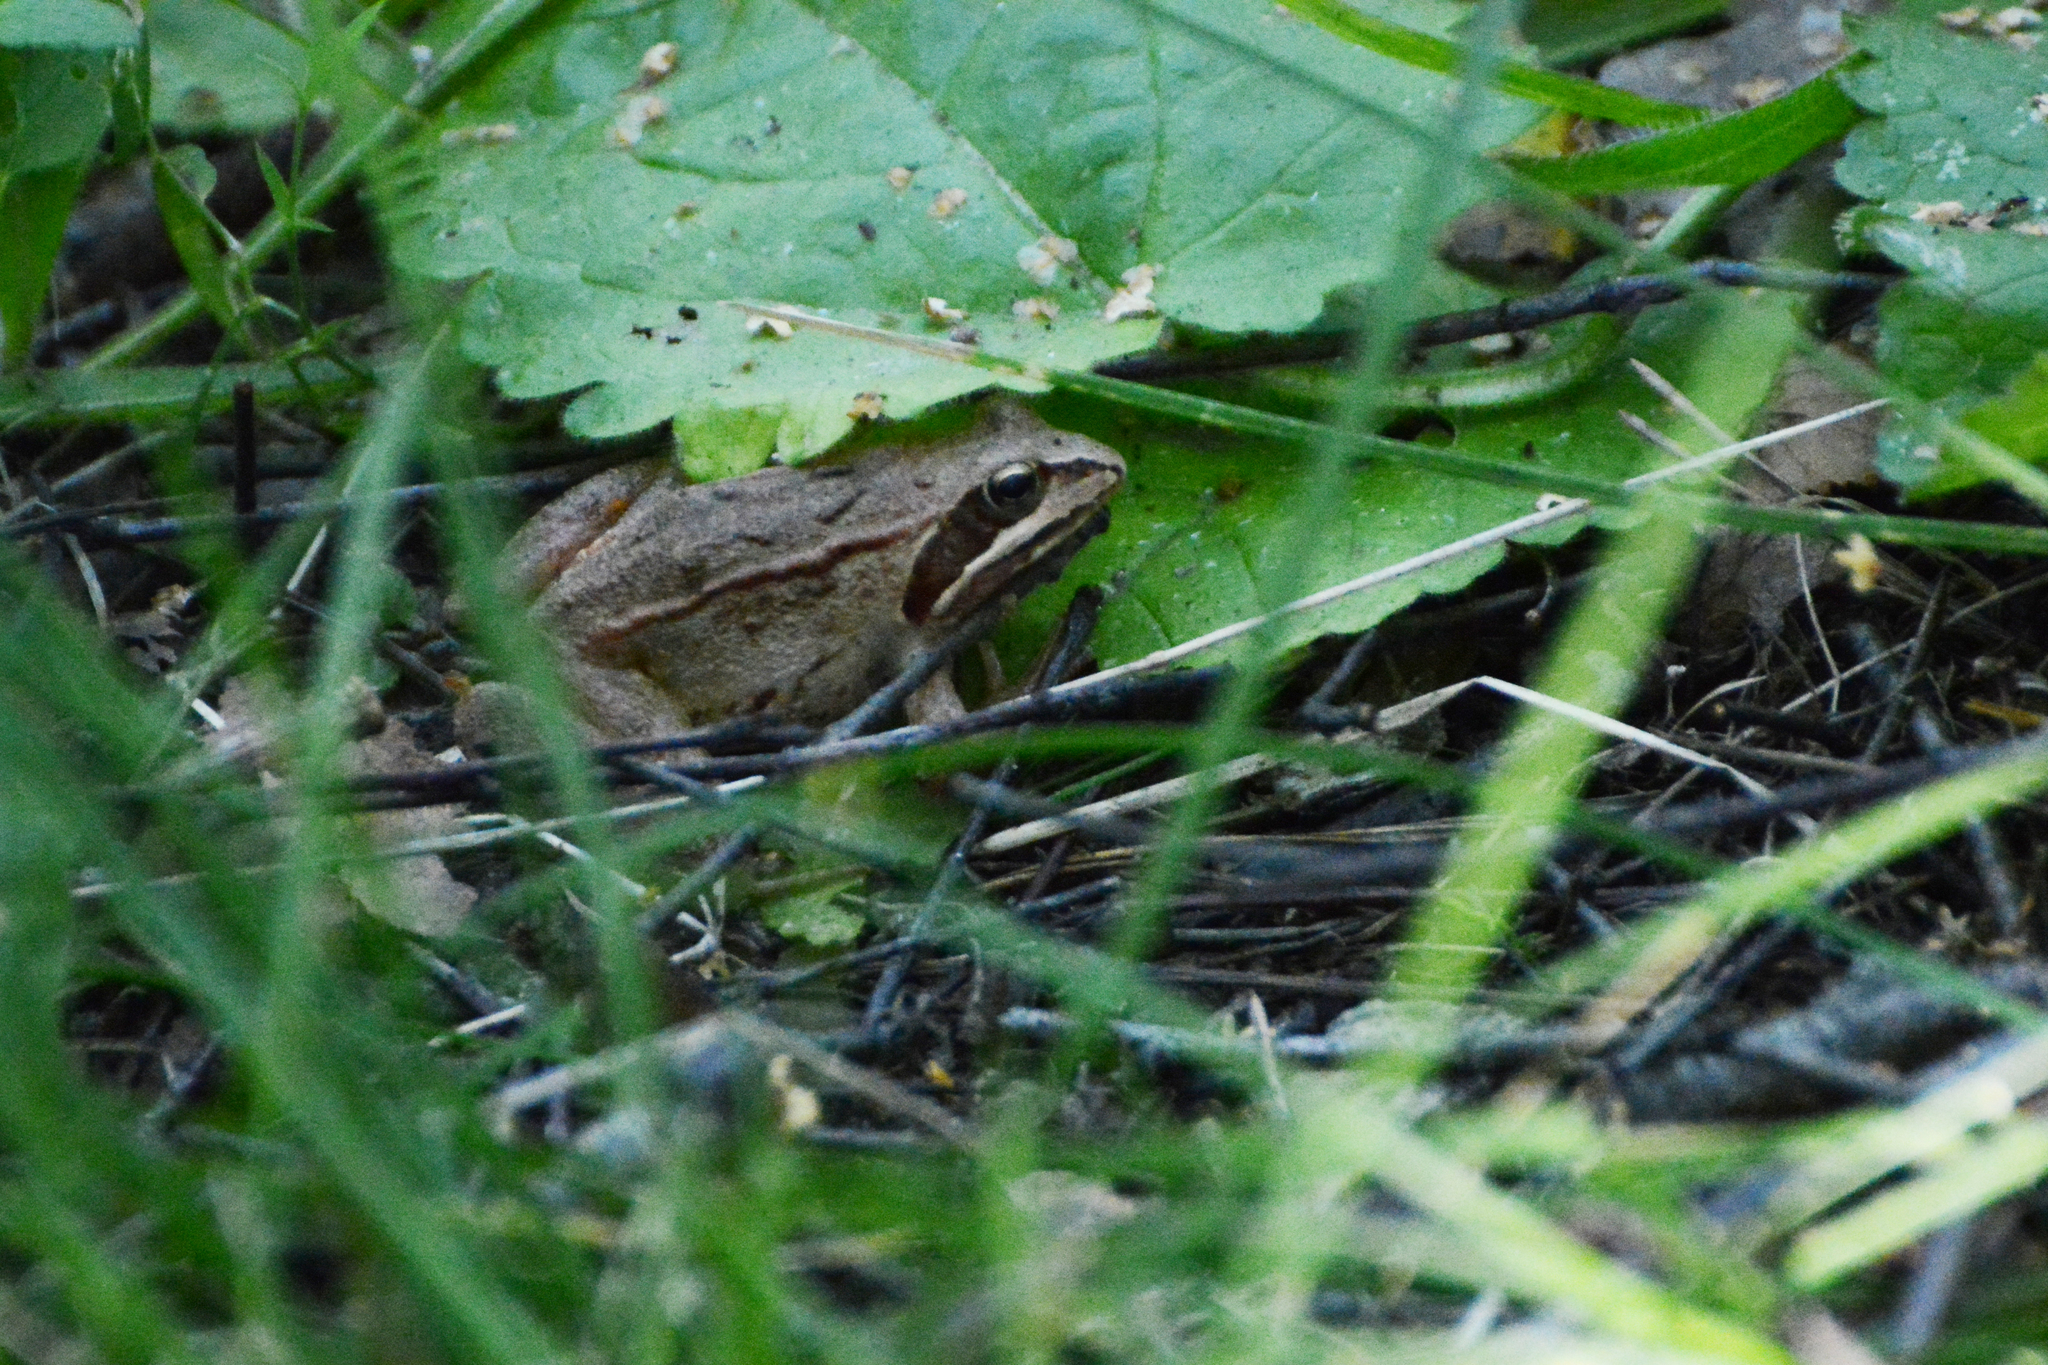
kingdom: Animalia
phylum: Chordata
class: Amphibia
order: Anura
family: Ranidae
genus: Rana
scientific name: Rana arvalis
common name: Moor frog
